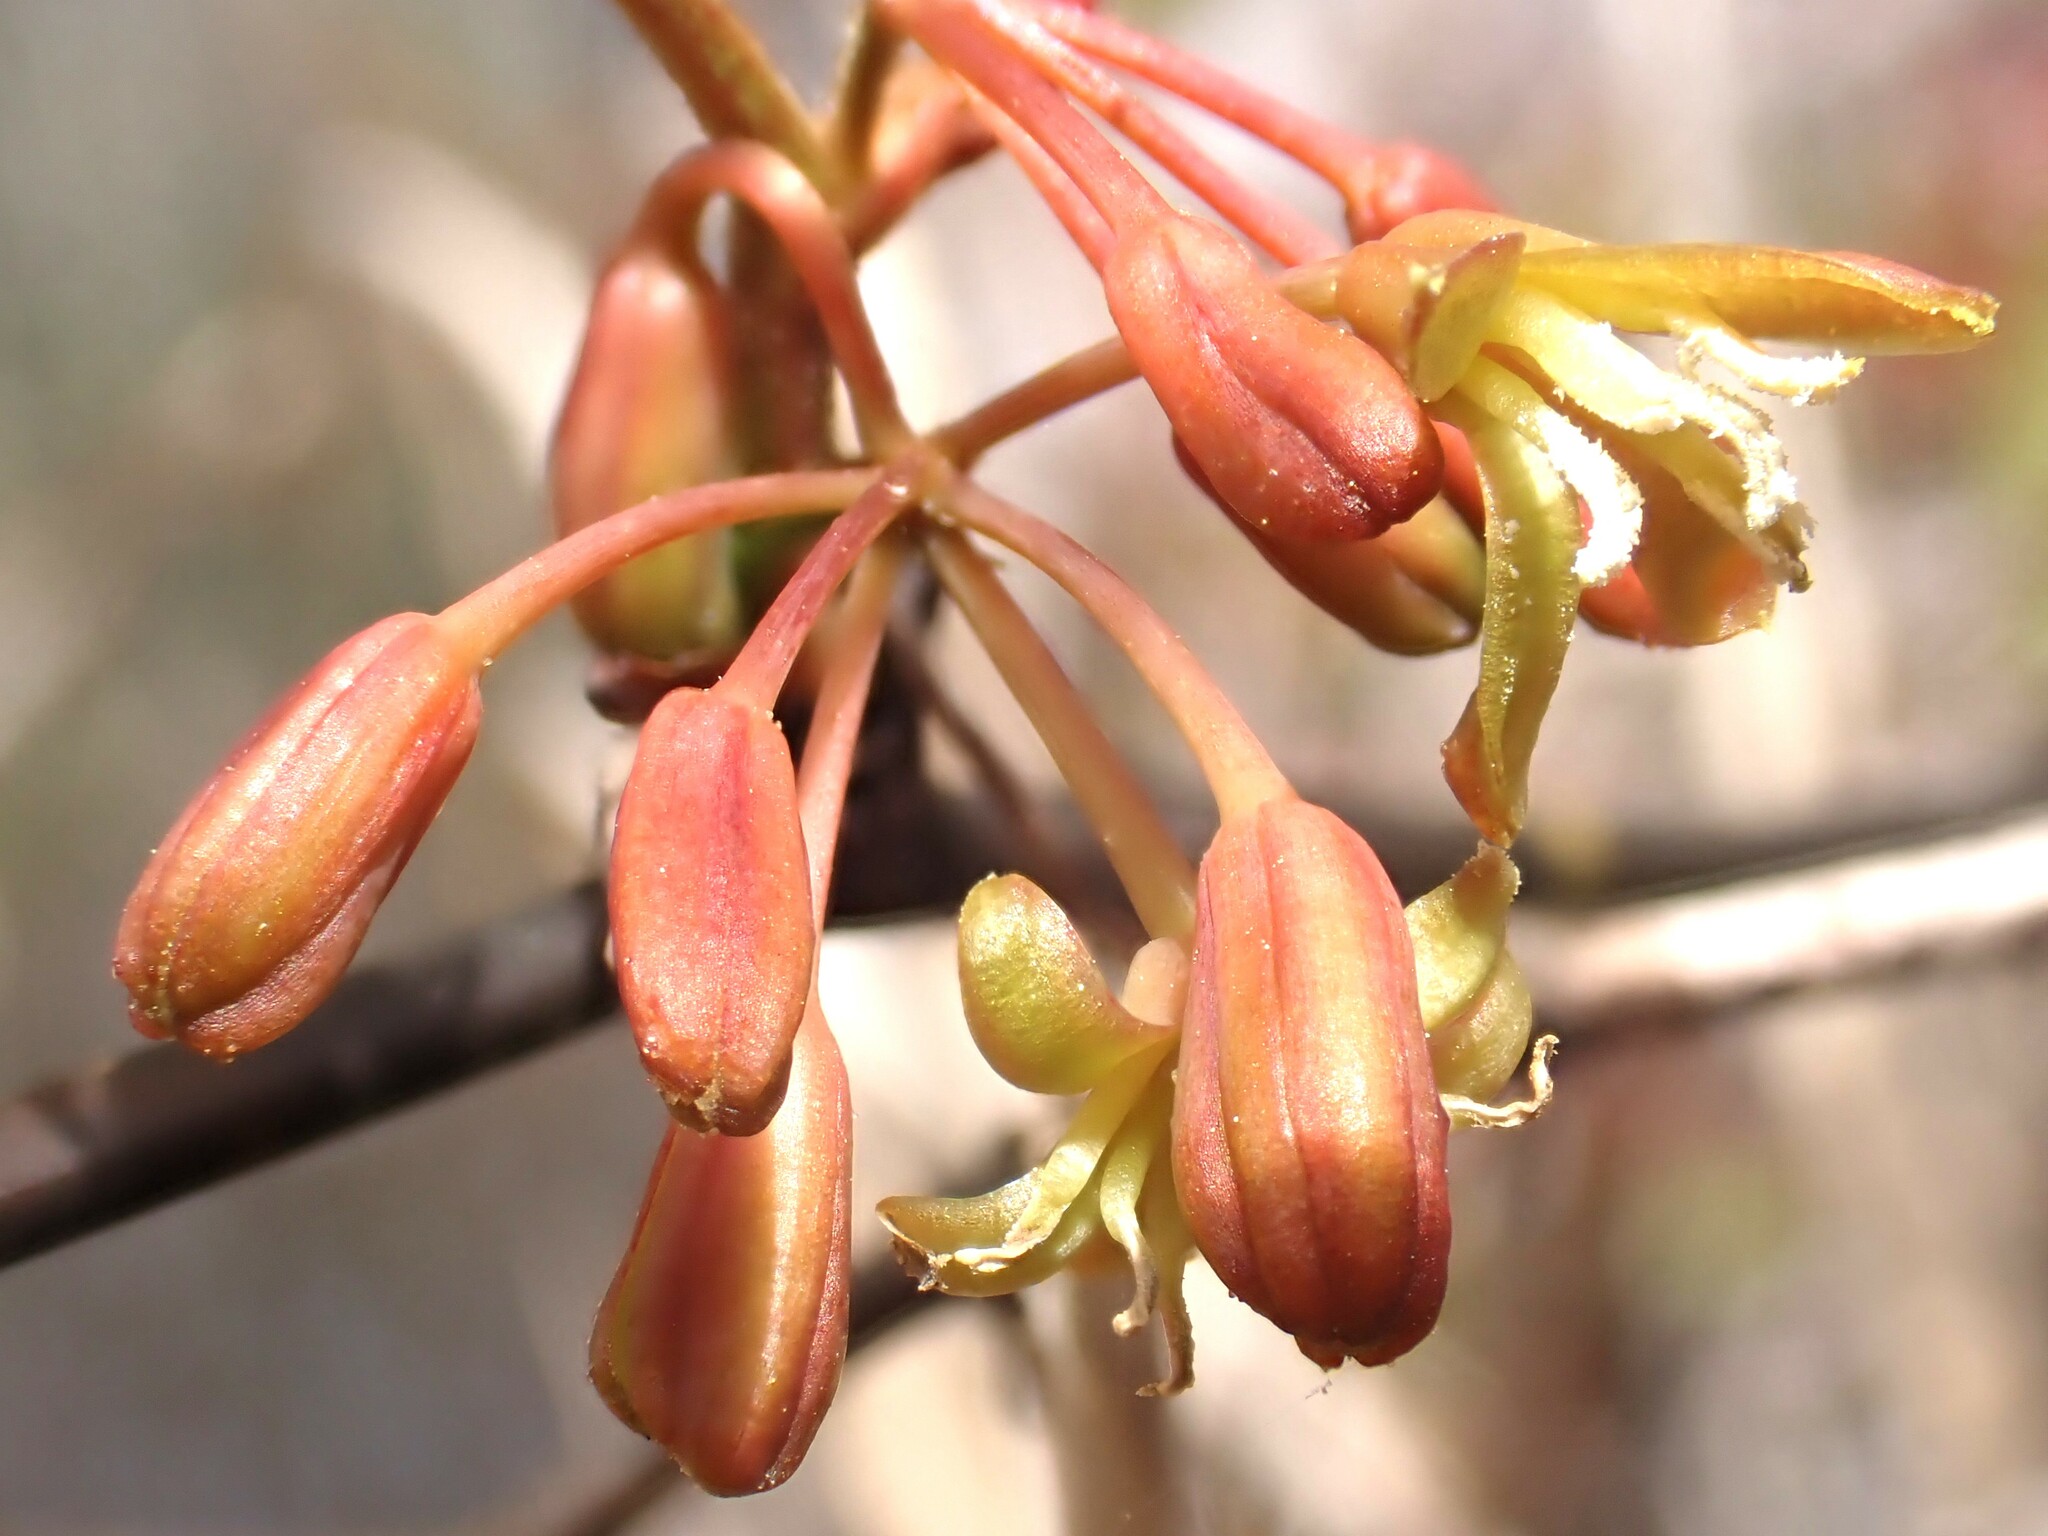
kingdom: Plantae
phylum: Tracheophyta
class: Liliopsida
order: Liliales
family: Smilacaceae
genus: Smilax
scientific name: Smilax walteri
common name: Coral greenbrier
